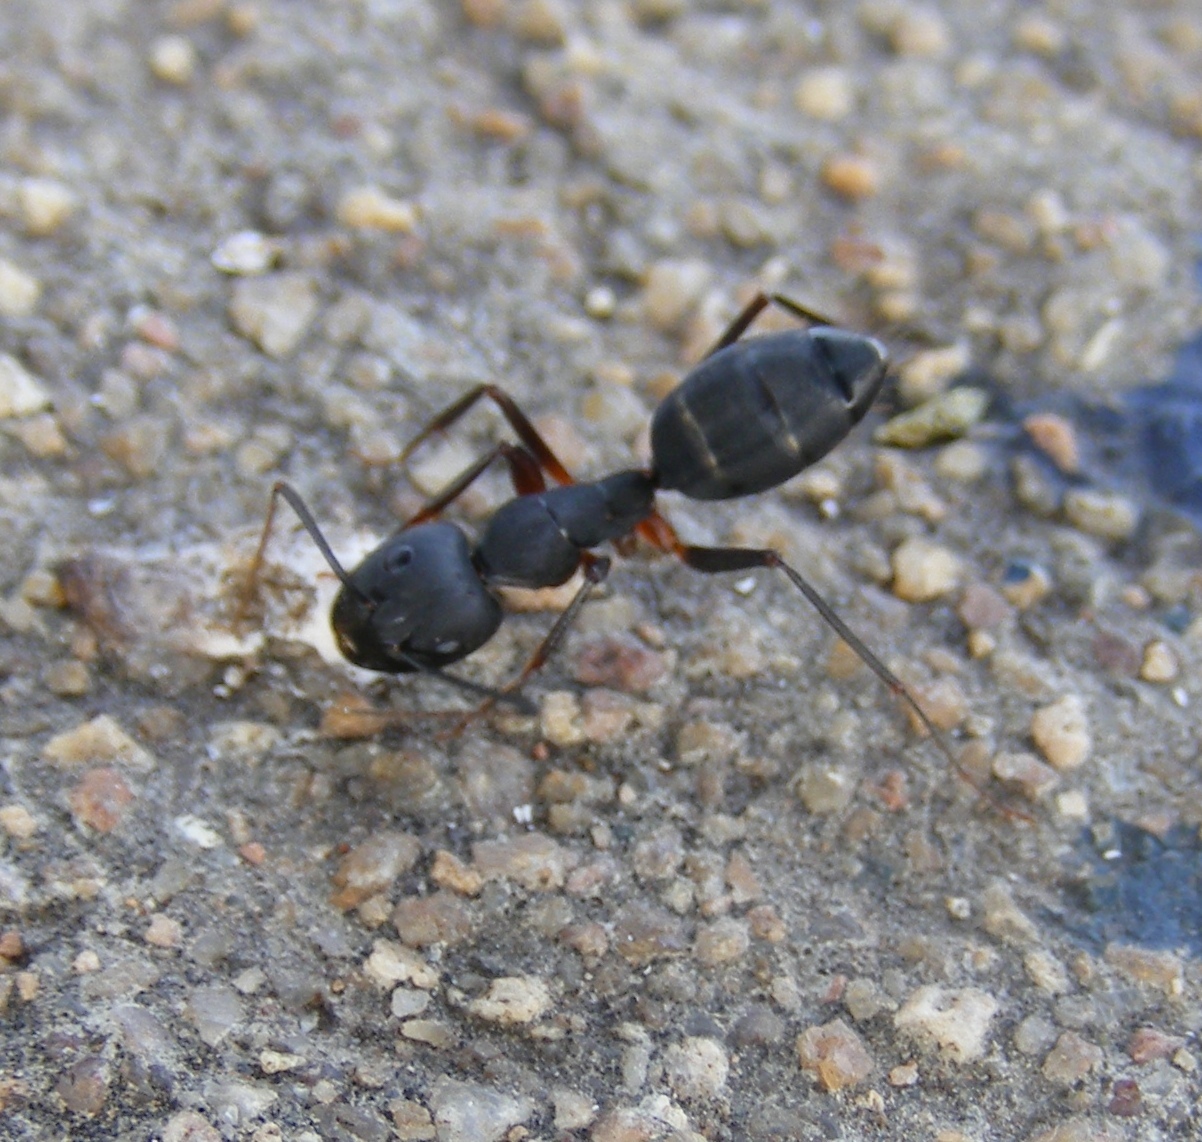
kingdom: Animalia
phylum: Arthropoda
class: Insecta
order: Hymenoptera
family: Formicidae
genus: Camponotus
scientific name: Camponotus compressus
